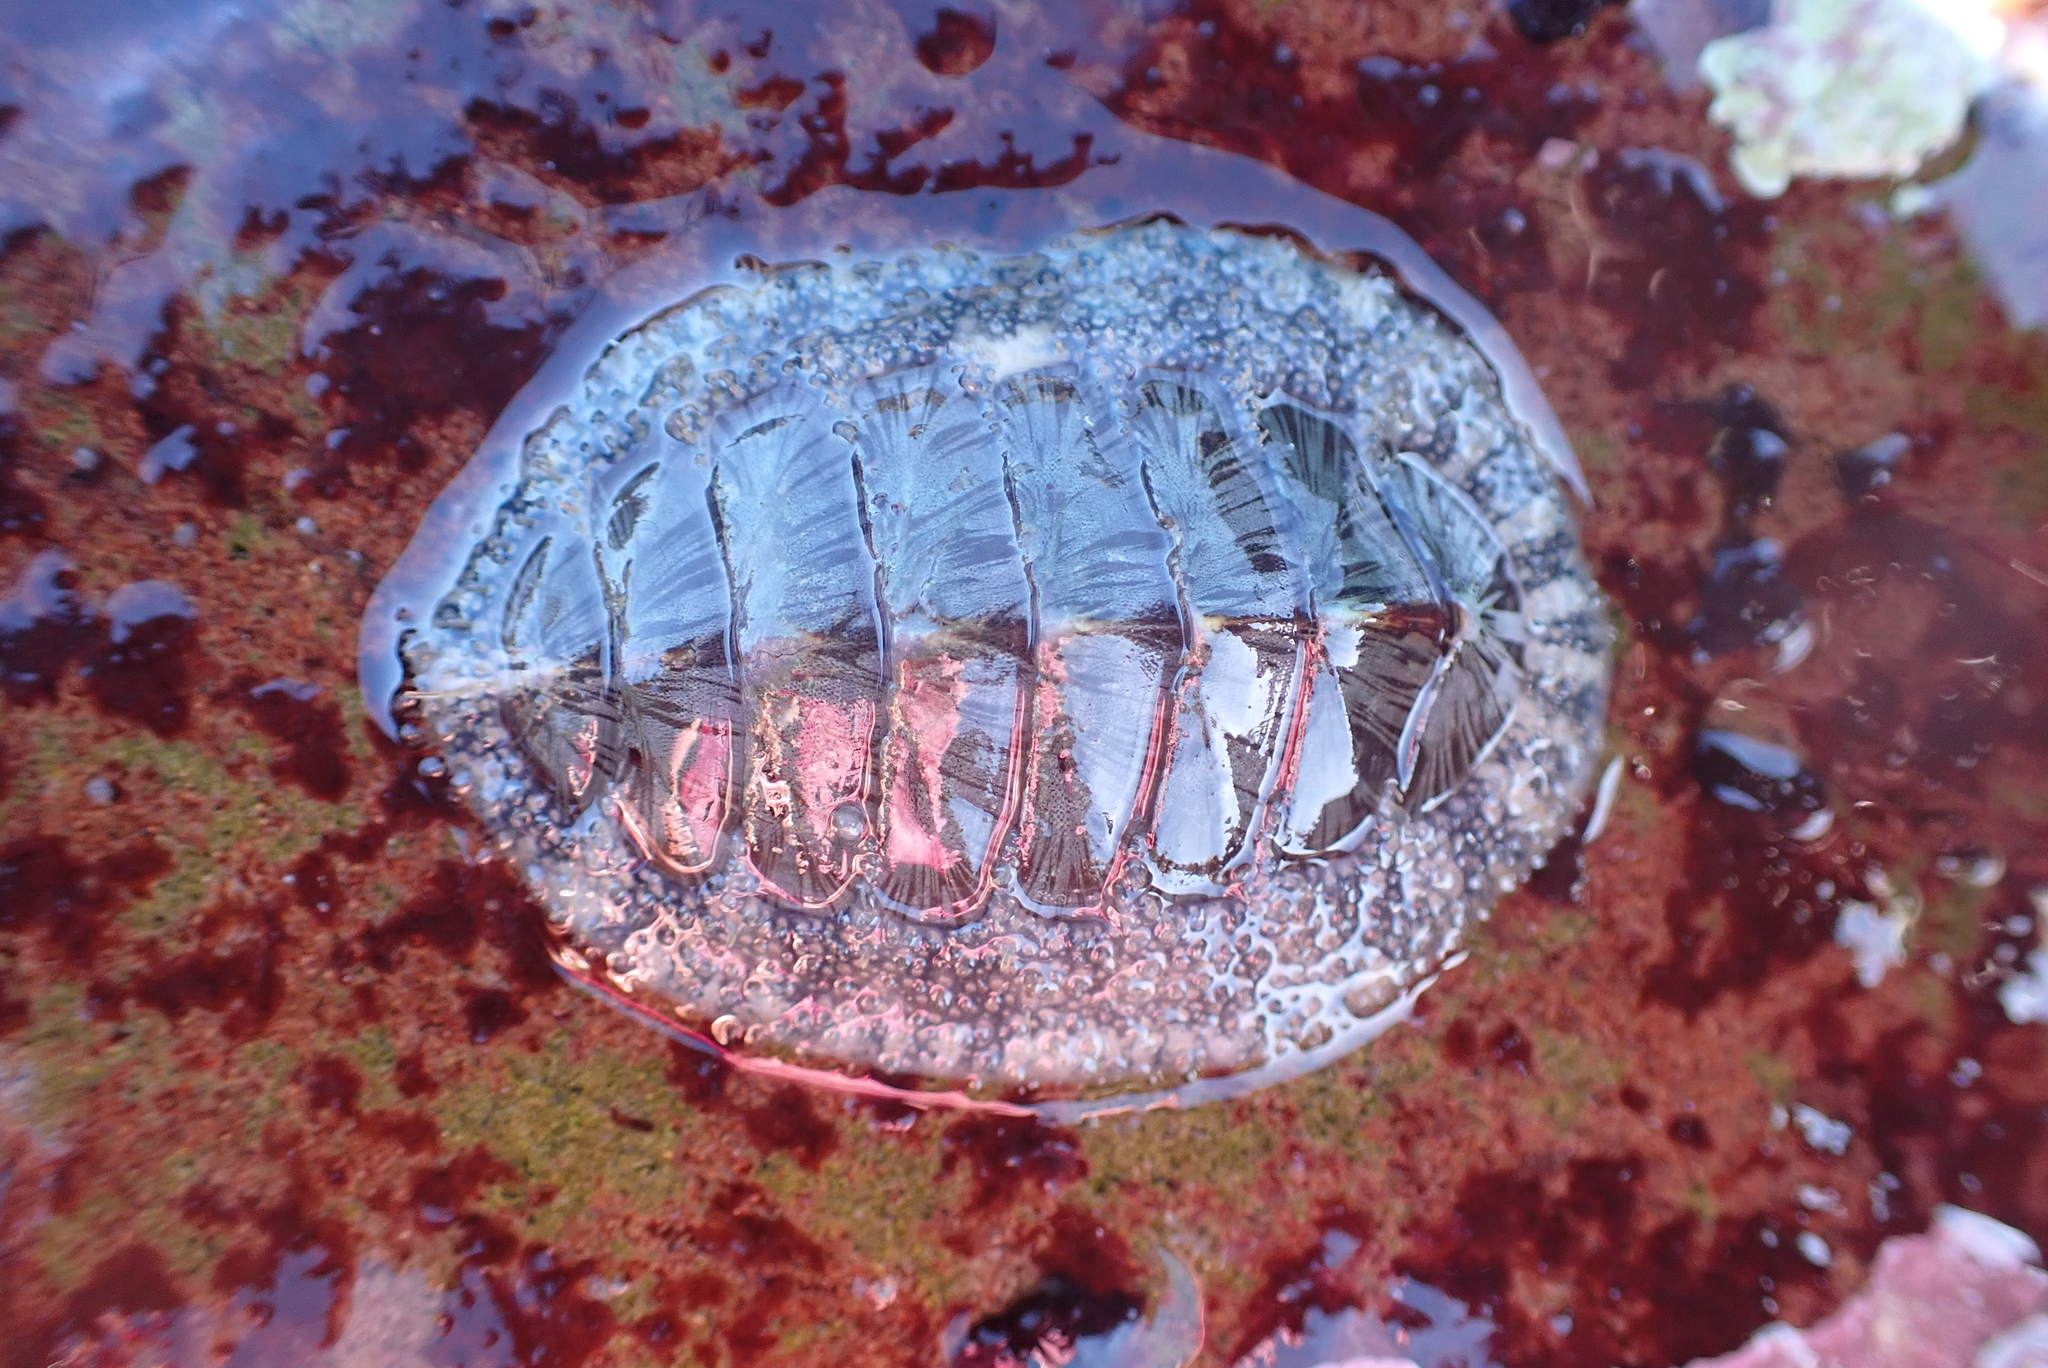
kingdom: Animalia
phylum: Mollusca
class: Polyplacophora
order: Chitonida
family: Mopaliidae
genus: Mopalia
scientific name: Mopalia lignosa
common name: Woody chiton
